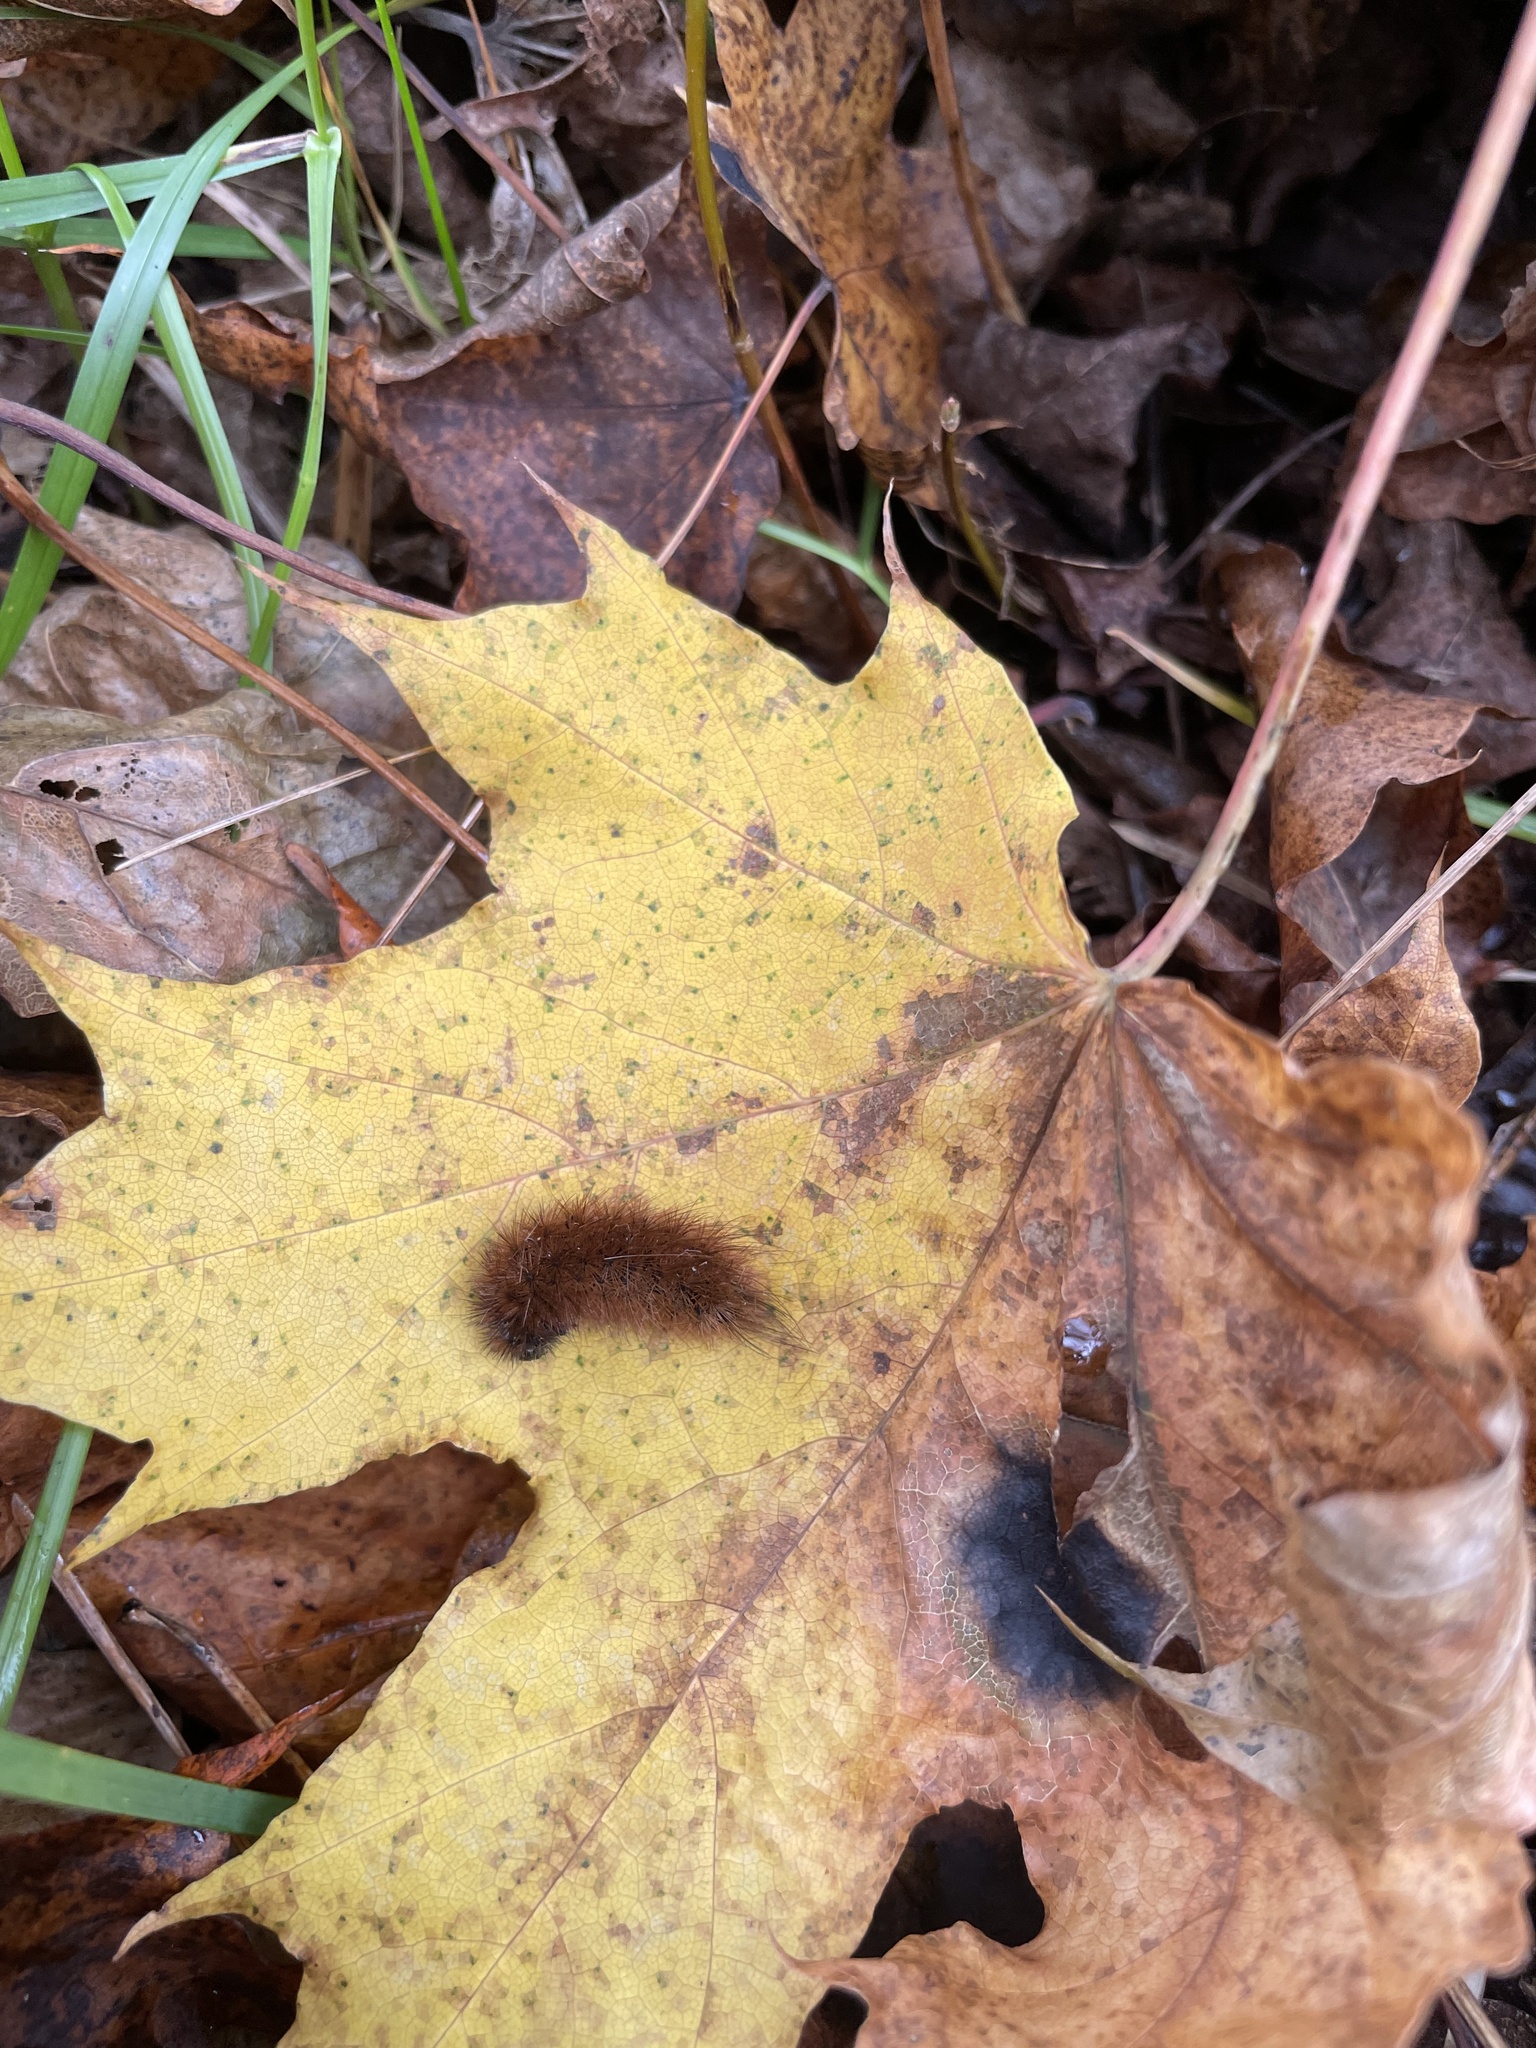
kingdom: Animalia
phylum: Arthropoda
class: Insecta
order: Lepidoptera
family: Erebidae
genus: Phragmatobia
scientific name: Phragmatobia fuliginosa
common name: Ruby tiger
